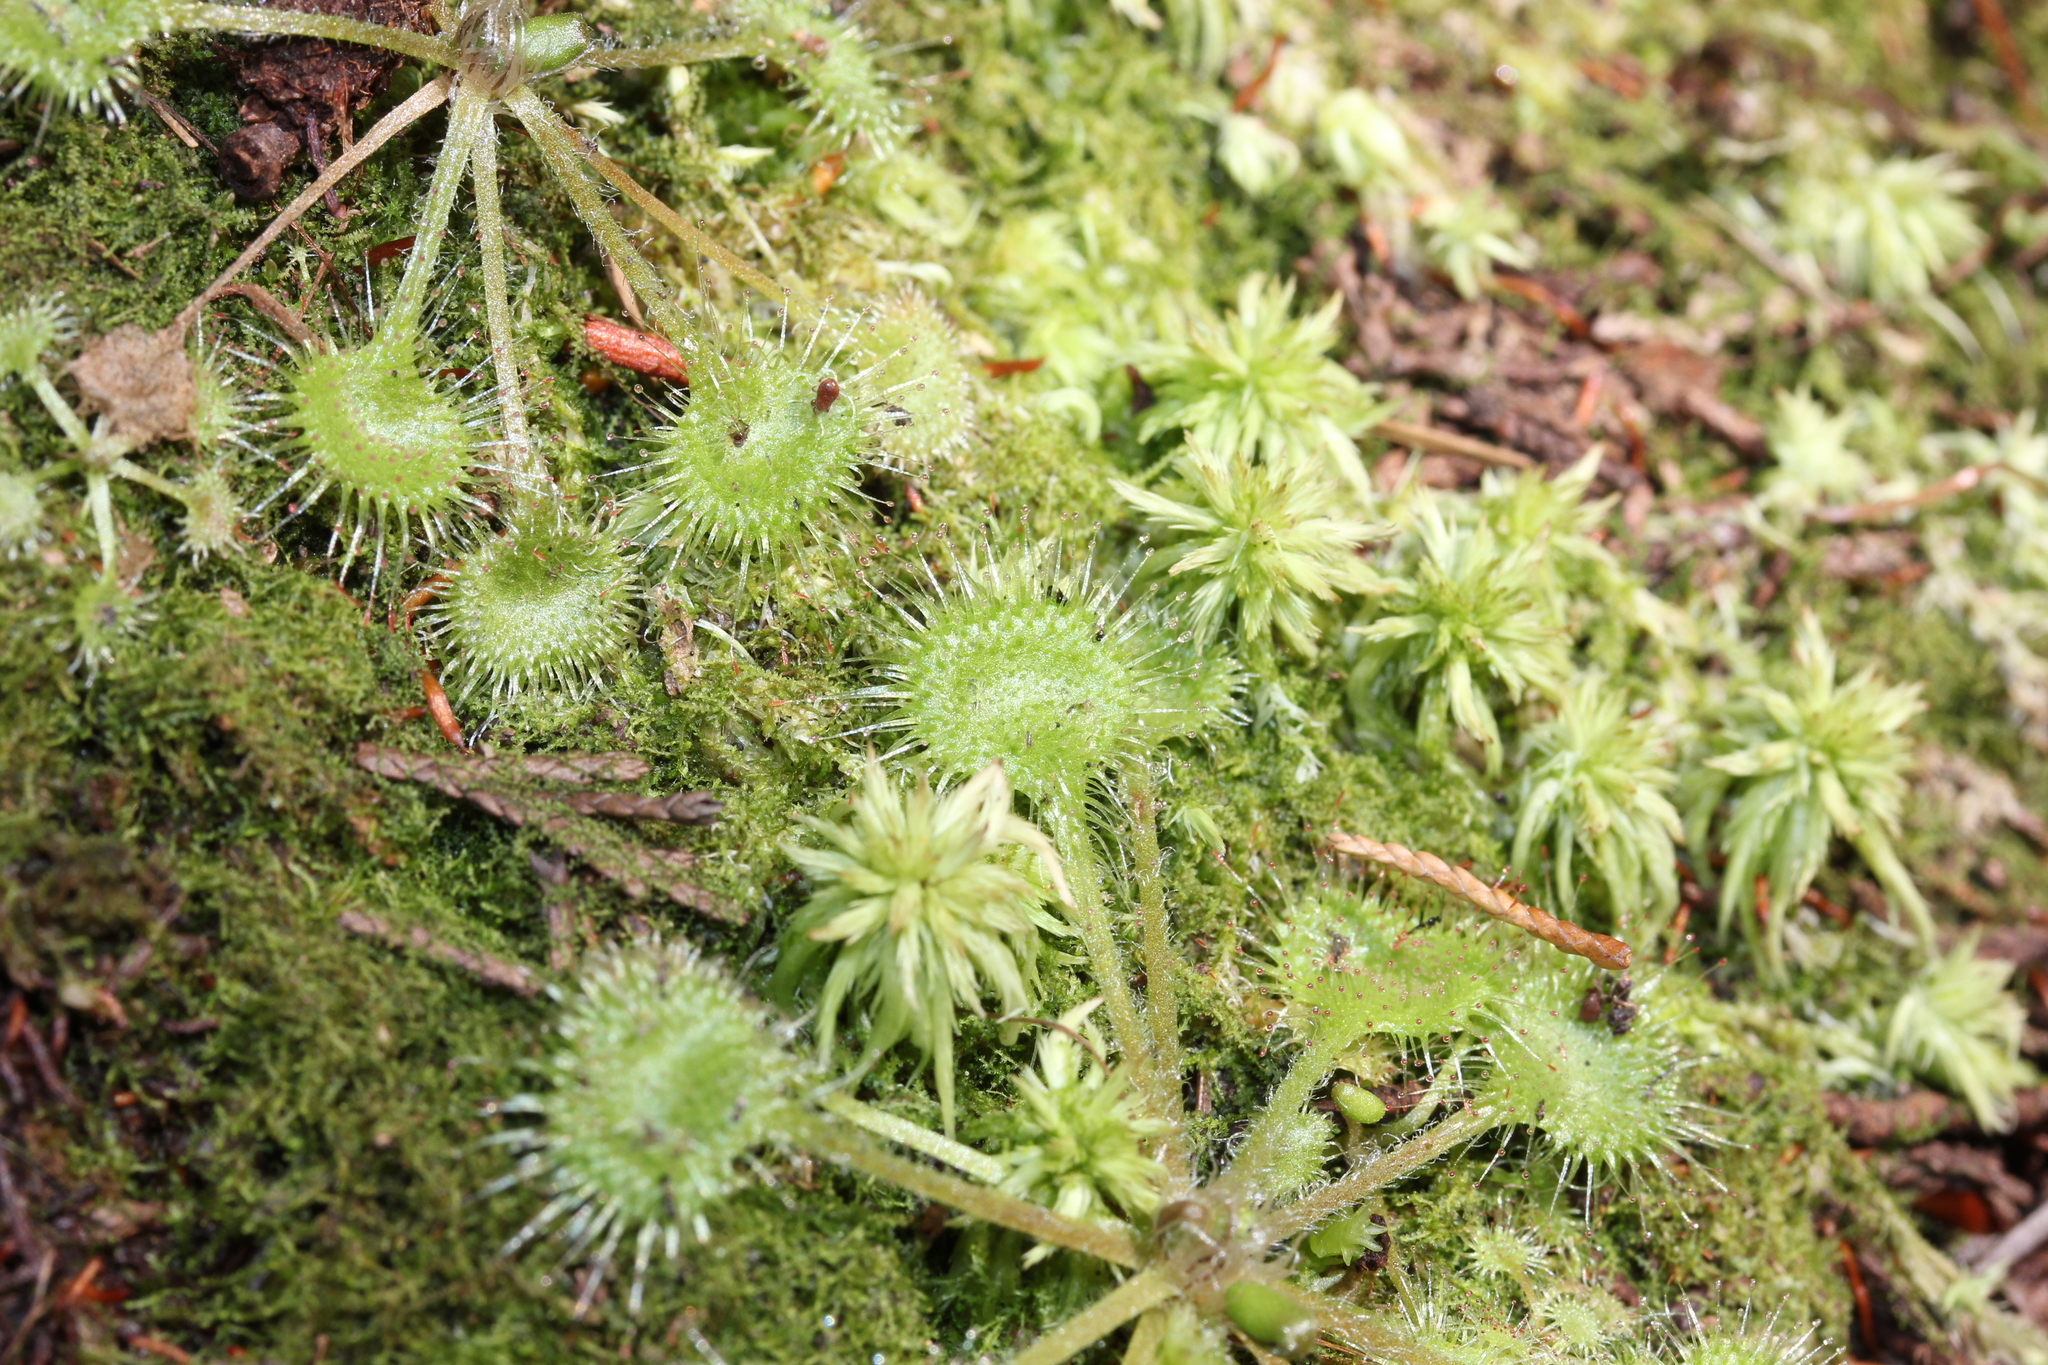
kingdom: Plantae
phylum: Tracheophyta
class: Magnoliopsida
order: Caryophyllales
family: Droseraceae
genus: Drosera
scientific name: Drosera rotundifolia
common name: Round-leaved sundew
